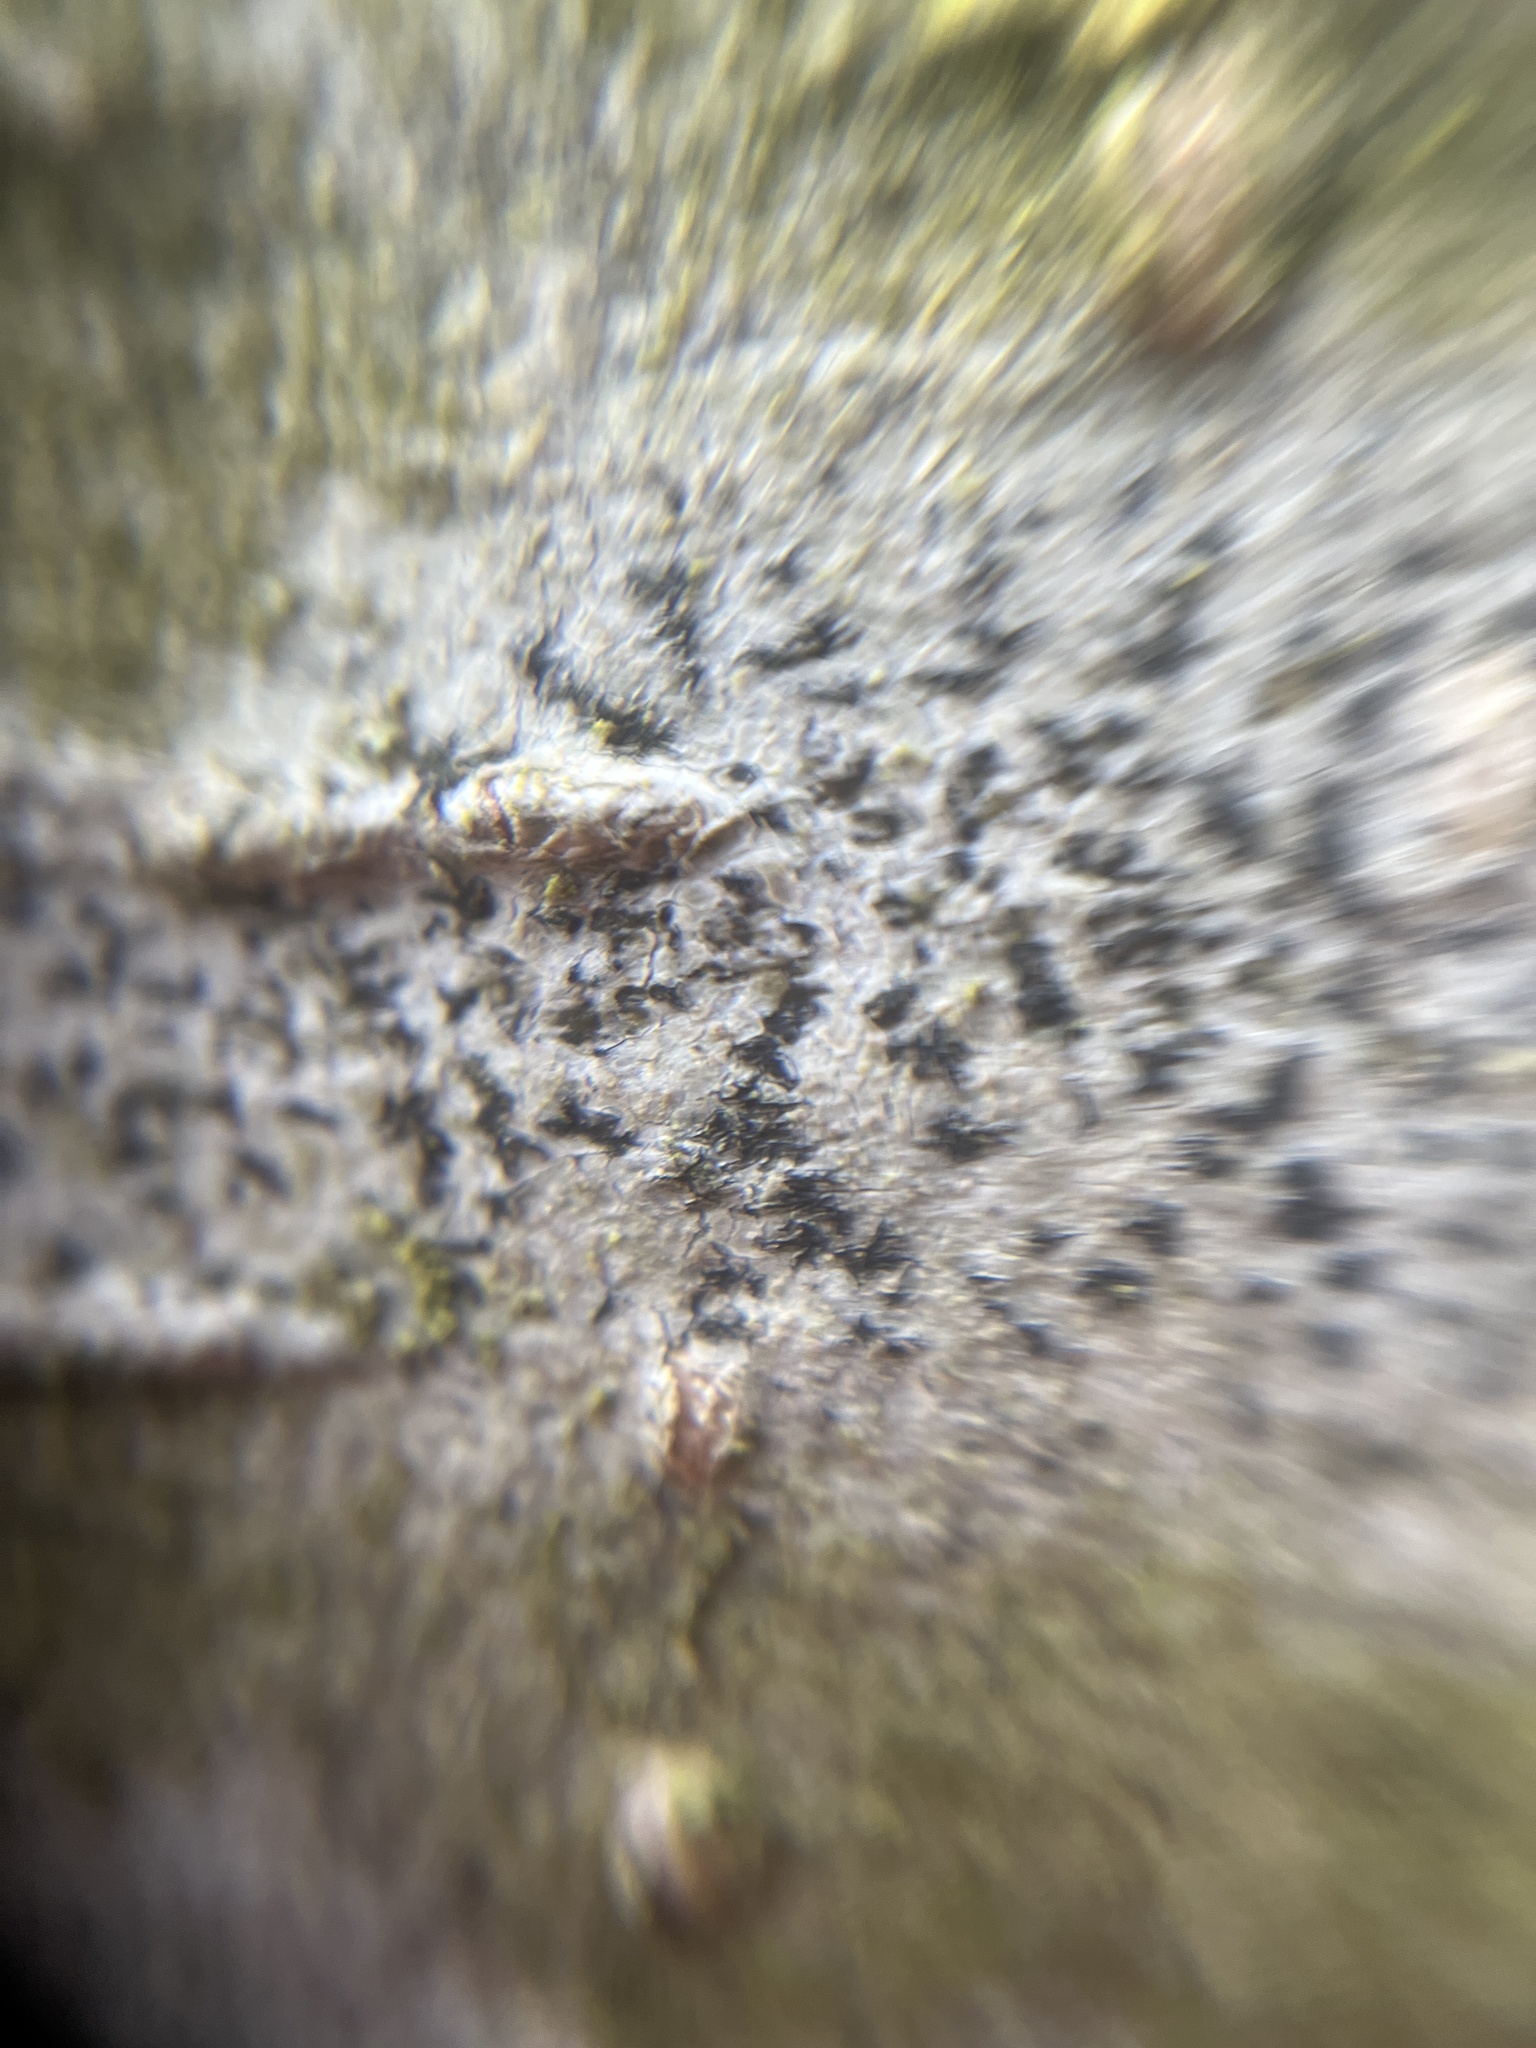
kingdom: Fungi
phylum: Ascomycota
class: Arthoniomycetes
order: Arthoniales
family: Arthoniaceae
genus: Arthonia
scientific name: Arthonia radiata
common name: Asterisk lichen
